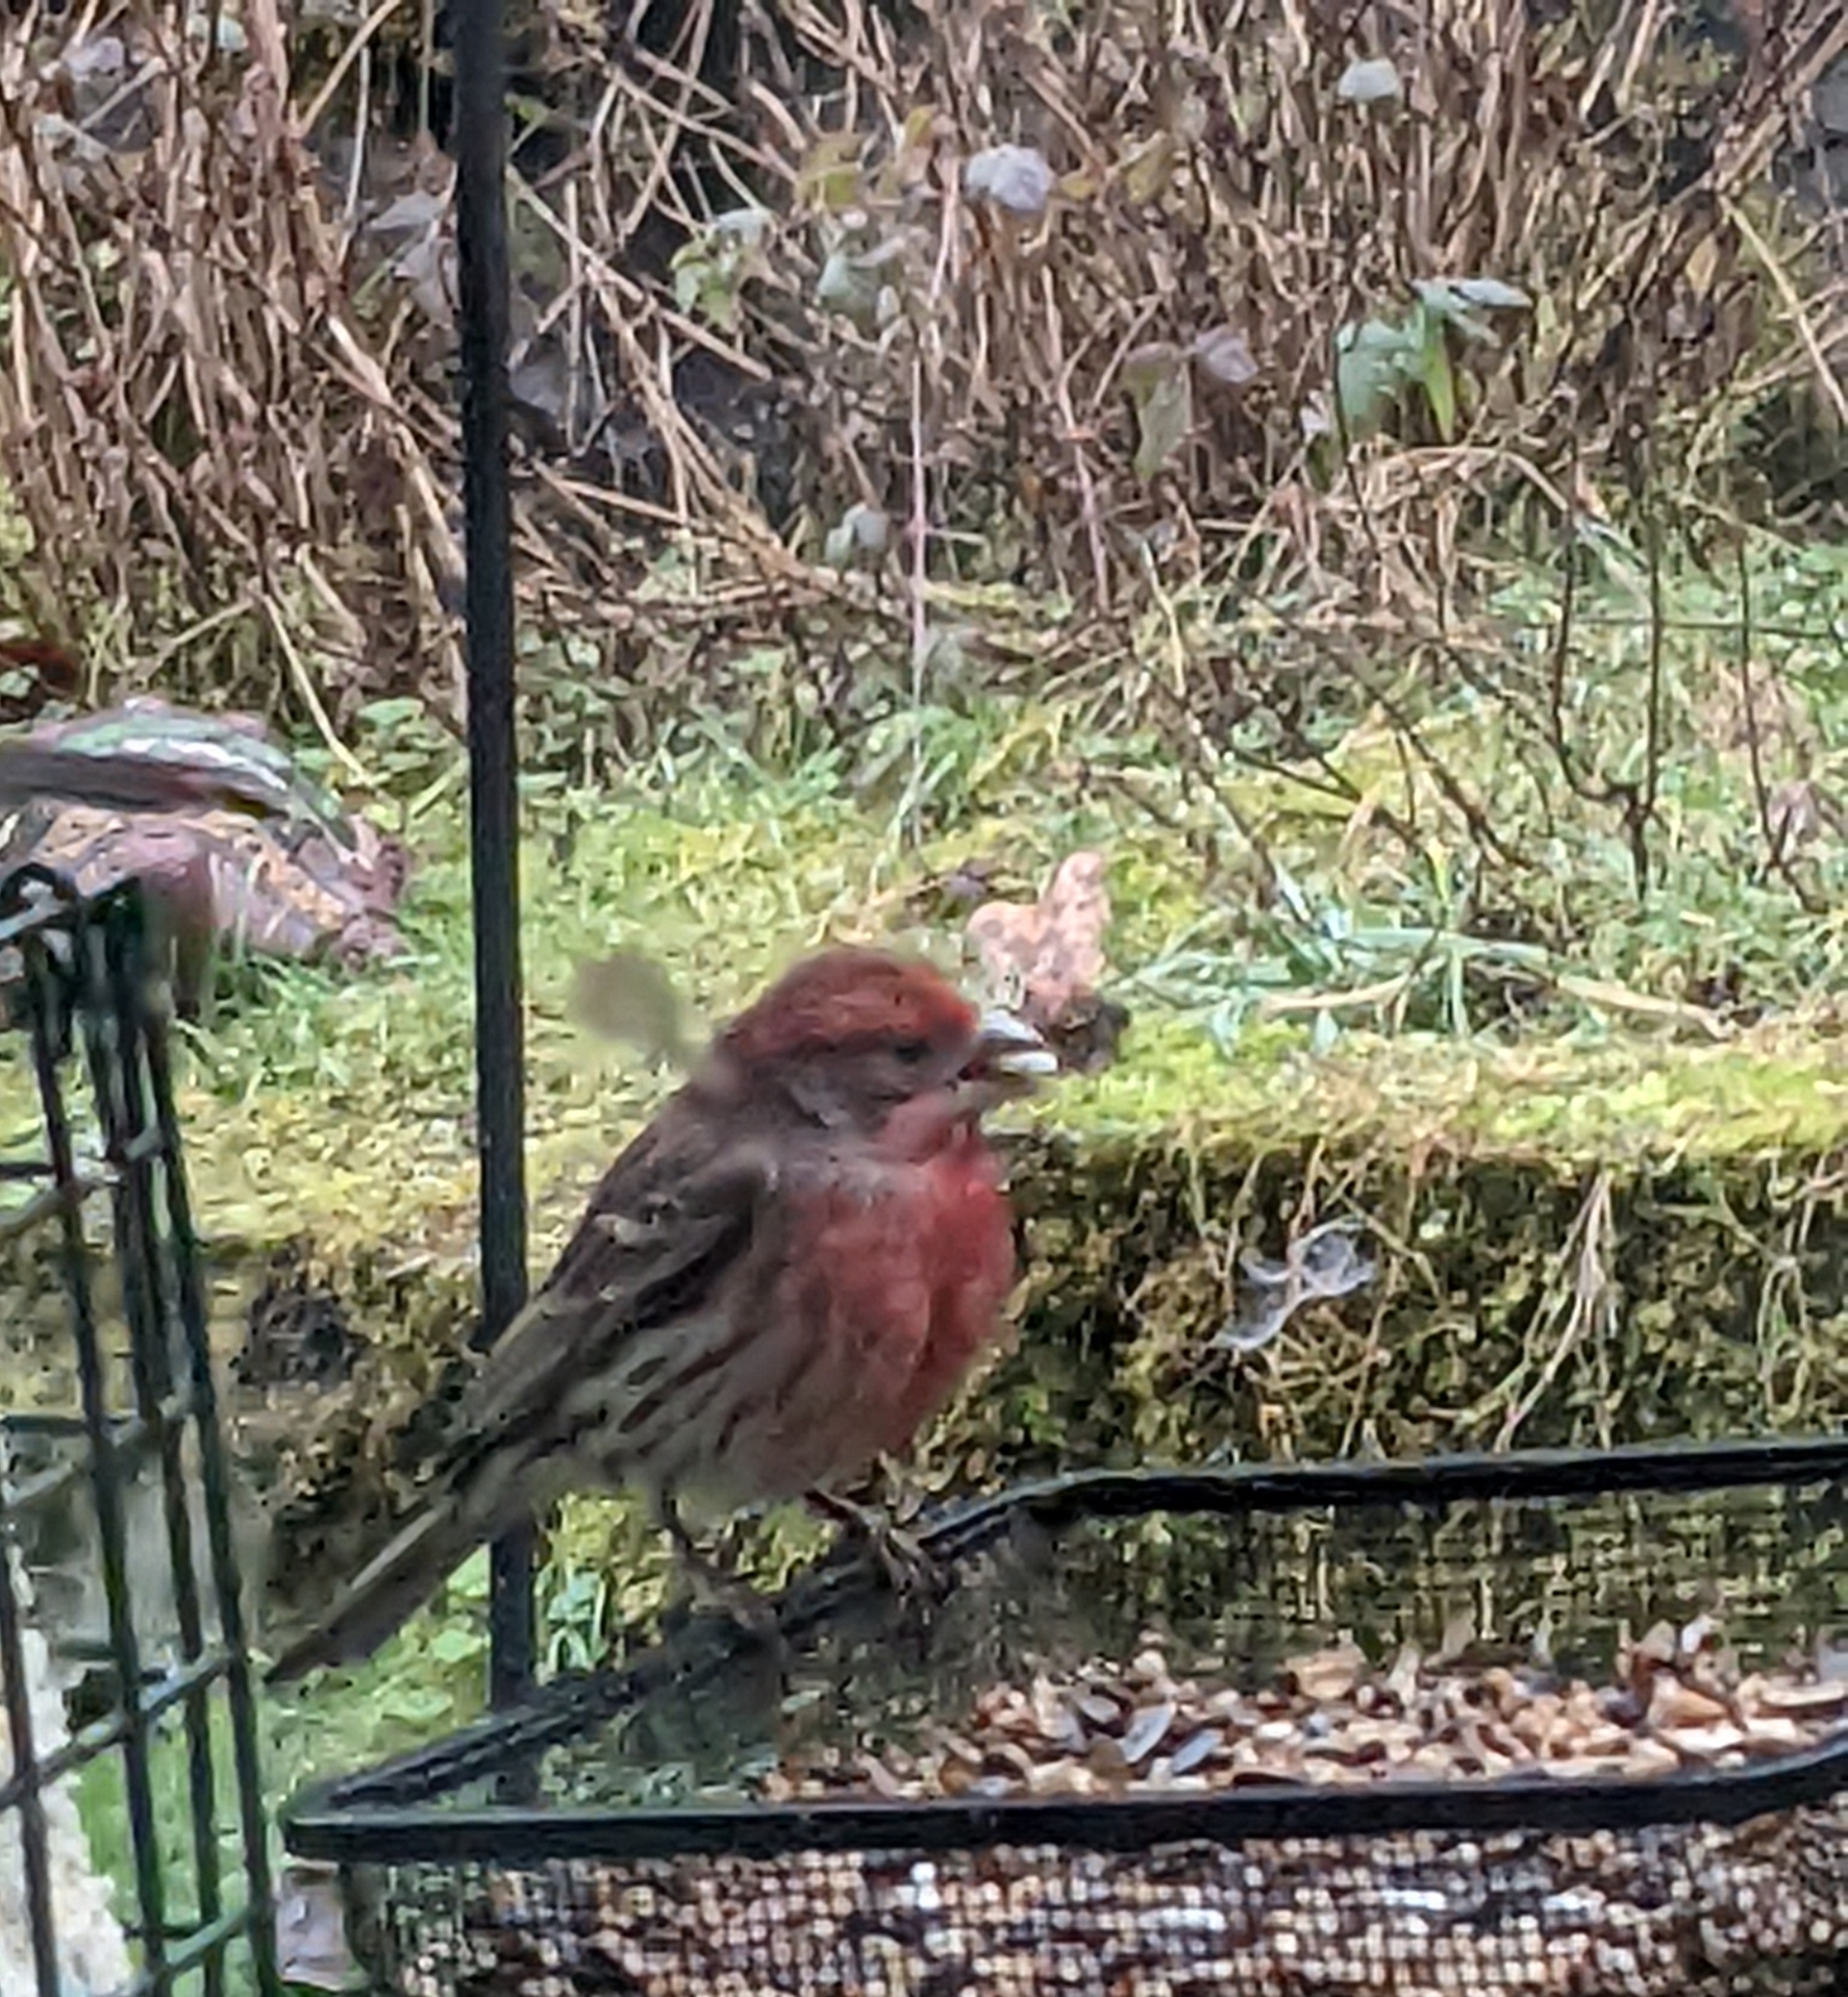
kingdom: Animalia
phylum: Chordata
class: Aves
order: Passeriformes
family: Fringillidae
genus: Haemorhous
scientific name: Haemorhous mexicanus
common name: House finch
